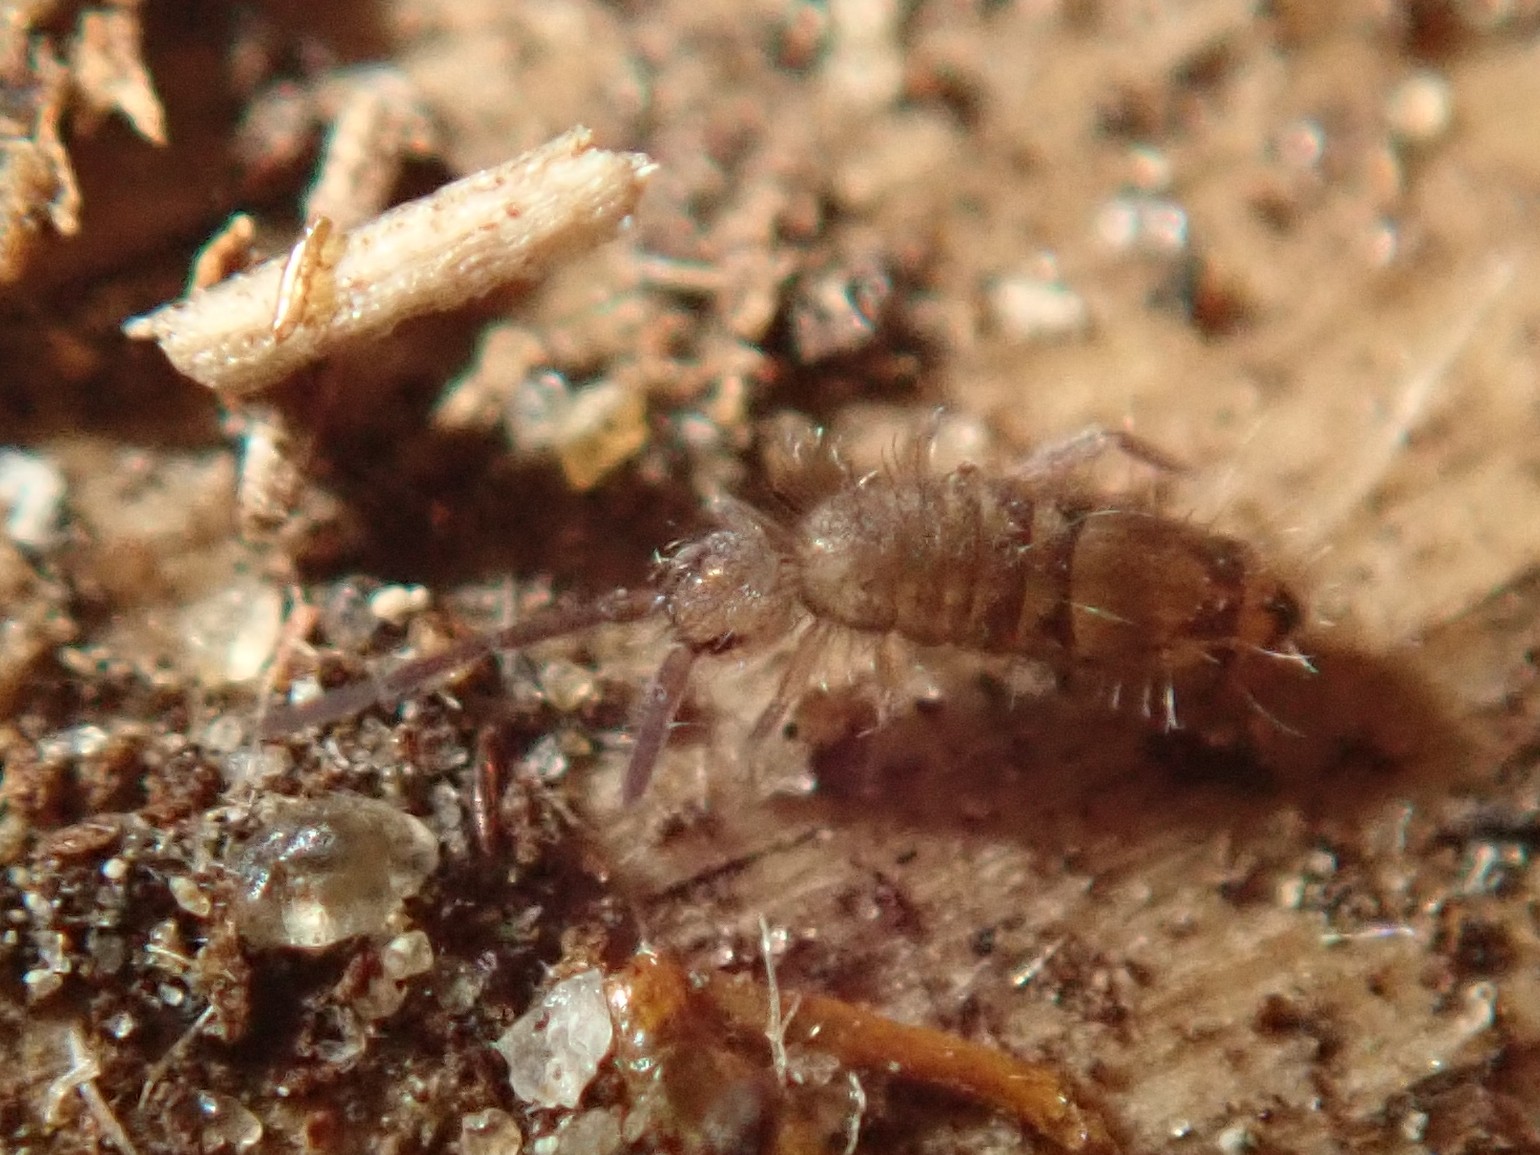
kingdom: Animalia
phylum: Arthropoda
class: Collembola
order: Entomobryomorpha
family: Entomobryidae
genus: Entomobrya
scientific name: Entomobrya multifasciata
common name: Springtail
